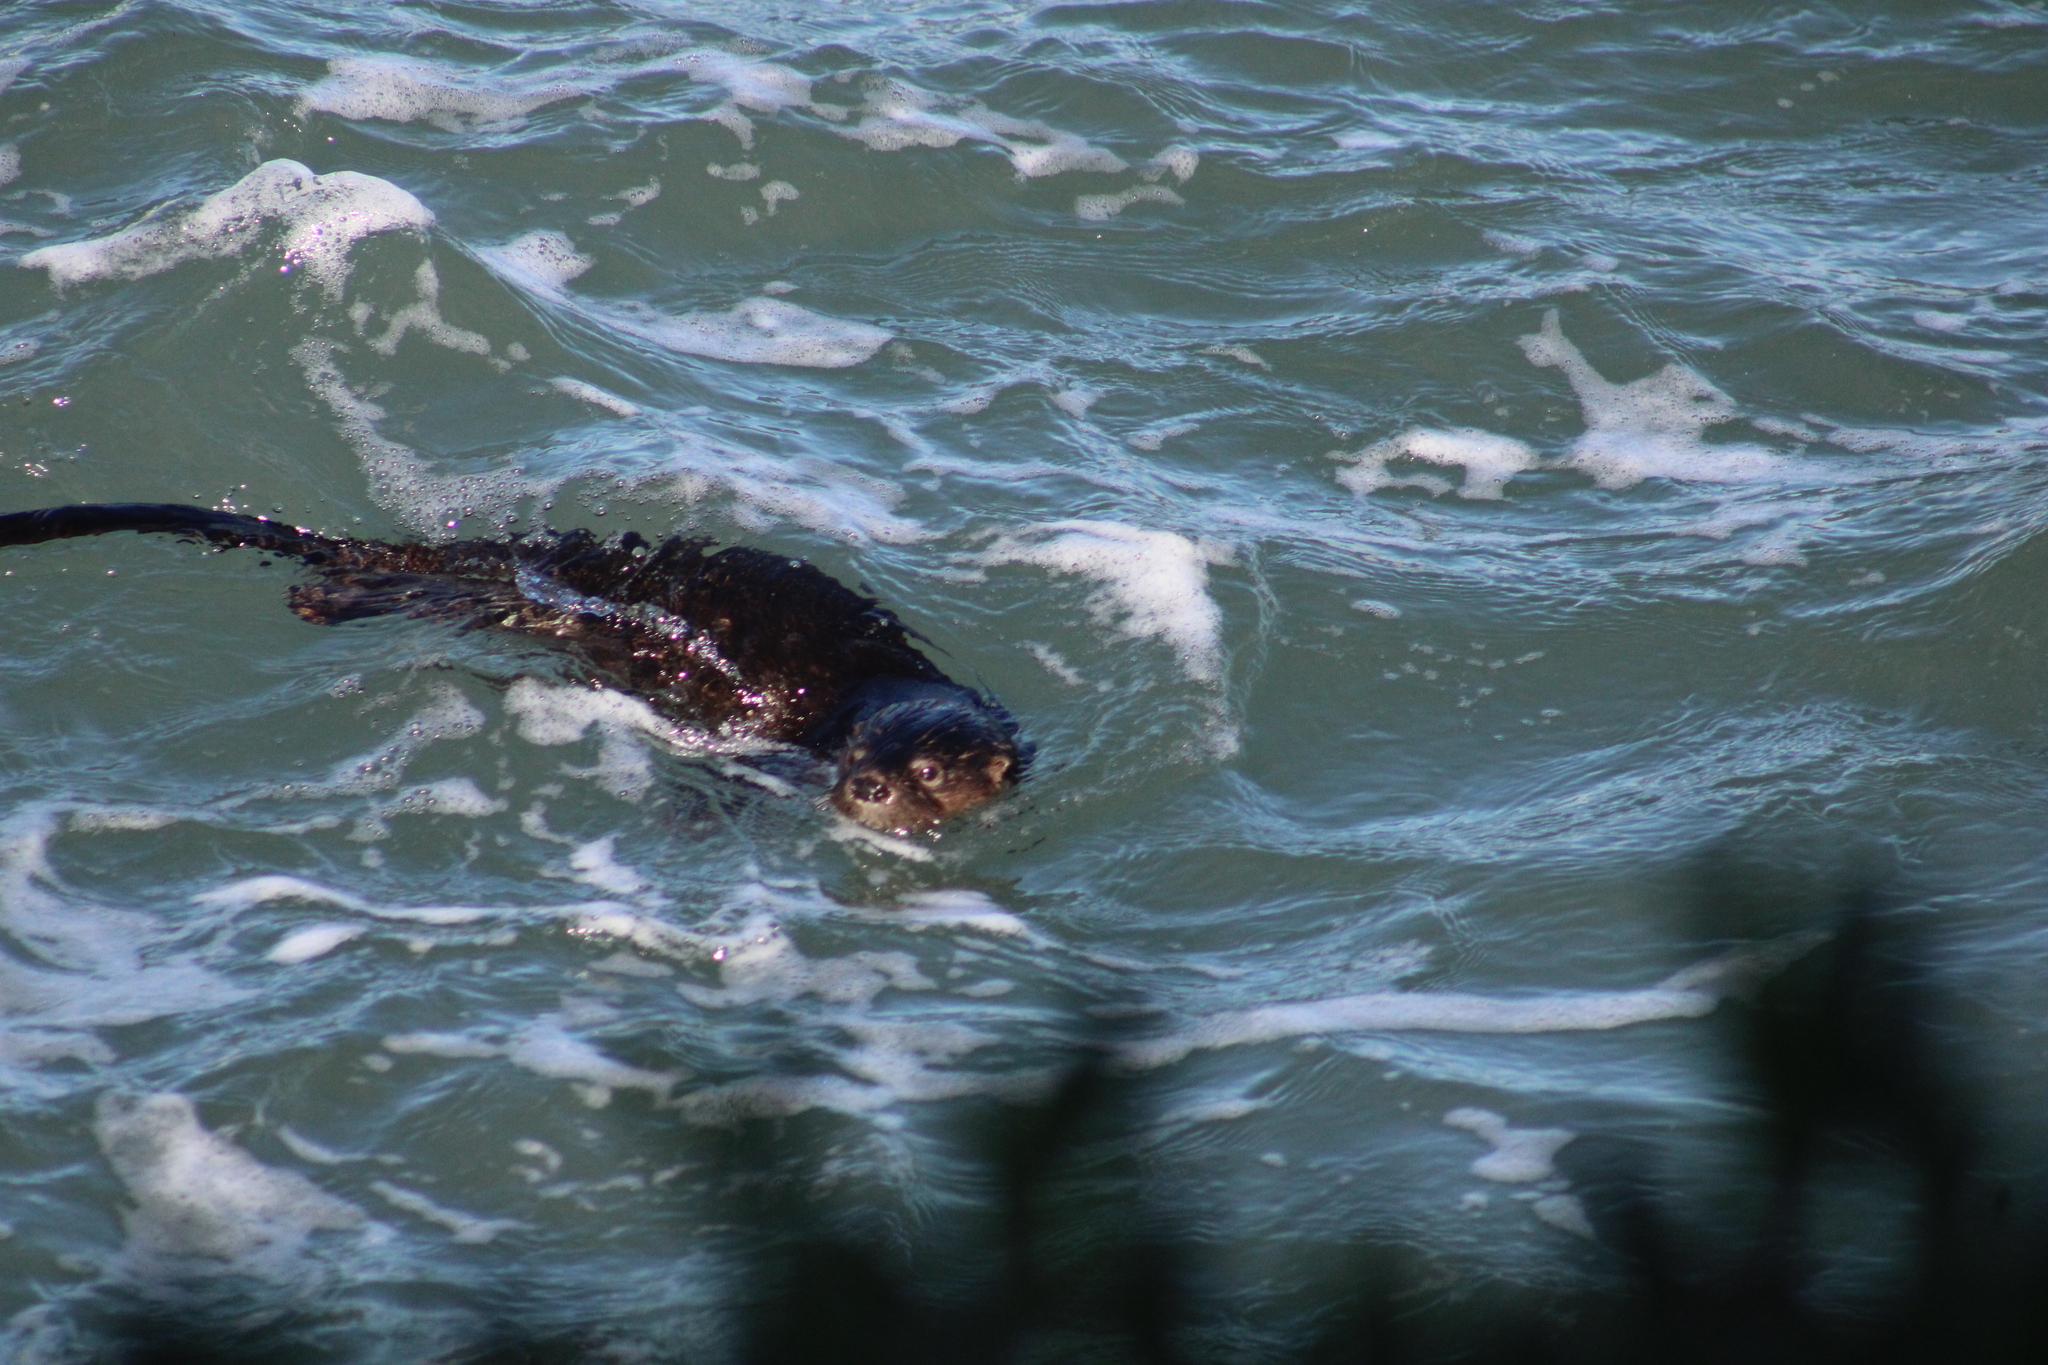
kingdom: Animalia
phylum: Chordata
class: Mammalia
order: Carnivora
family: Mustelidae
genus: Lontra
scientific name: Lontra felina
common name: Marine otter
